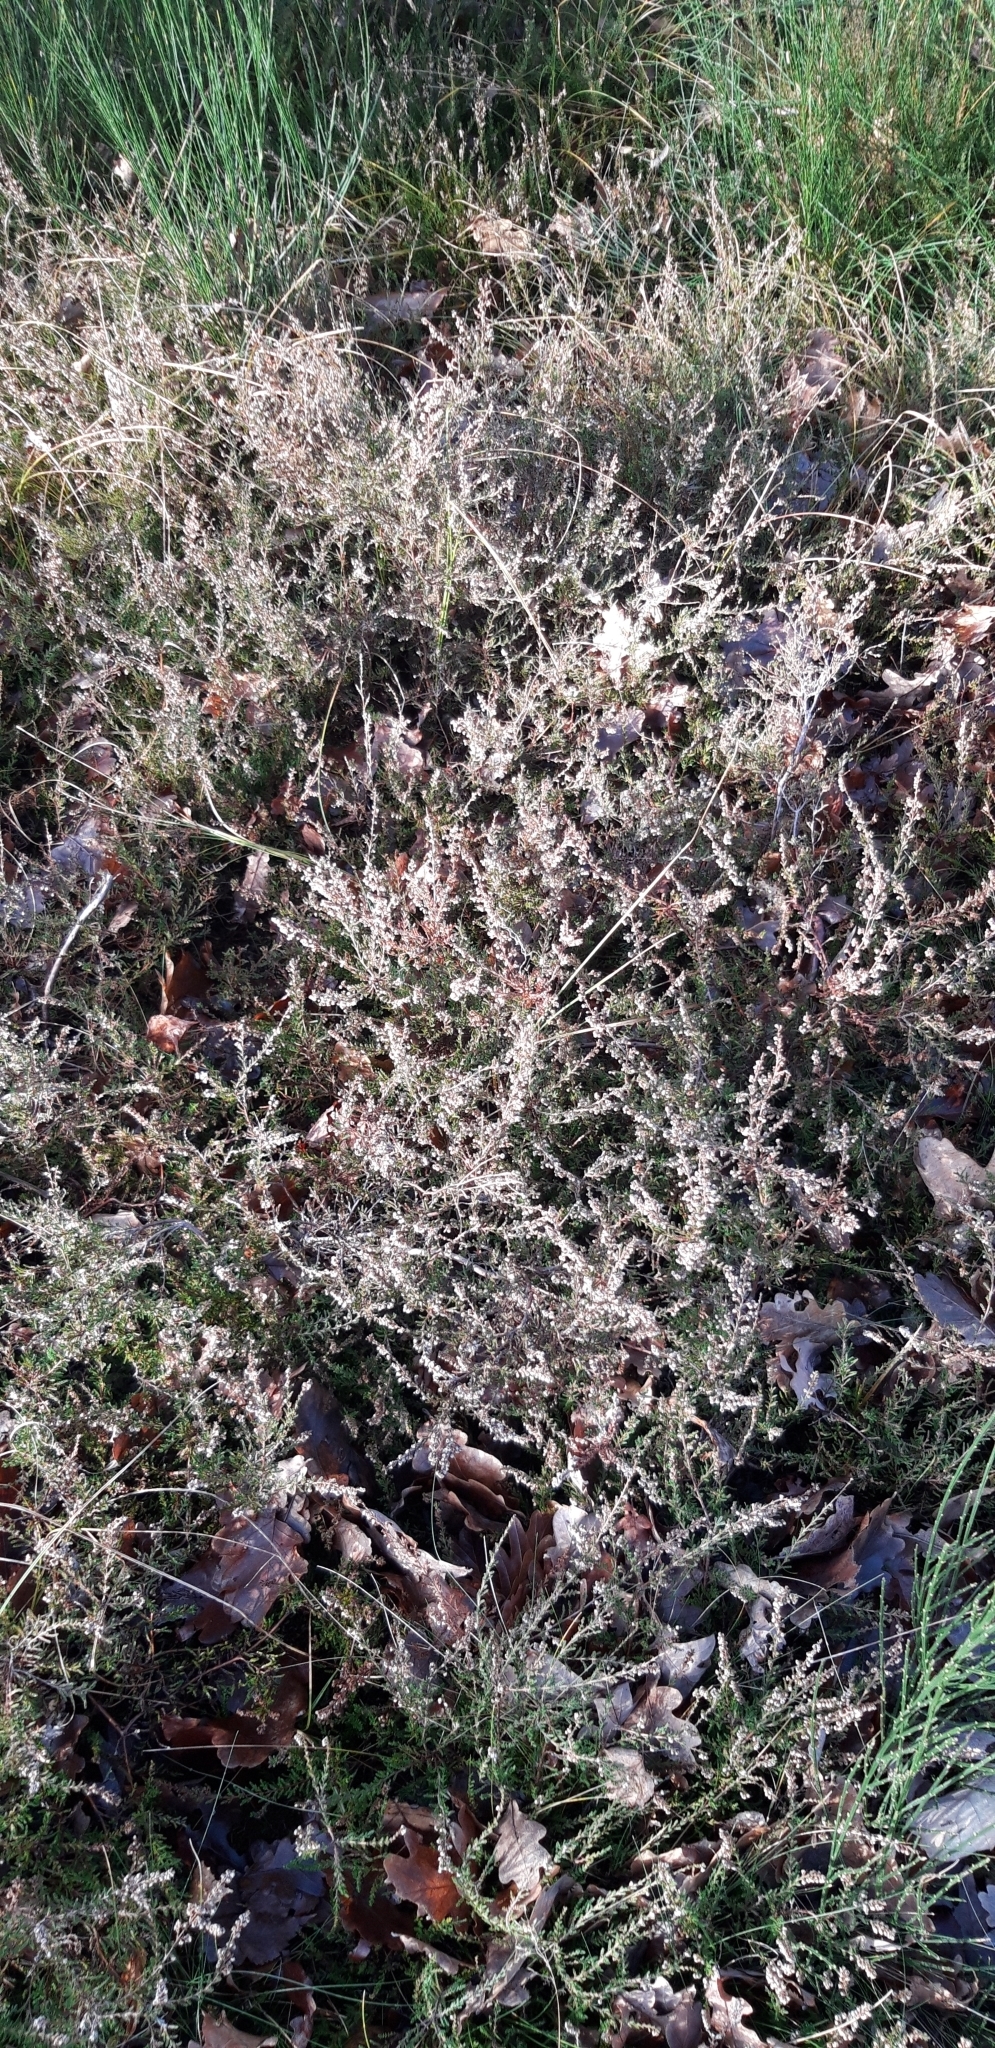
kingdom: Plantae
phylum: Tracheophyta
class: Magnoliopsida
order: Ericales
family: Ericaceae
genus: Calluna
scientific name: Calluna vulgaris
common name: Heather
